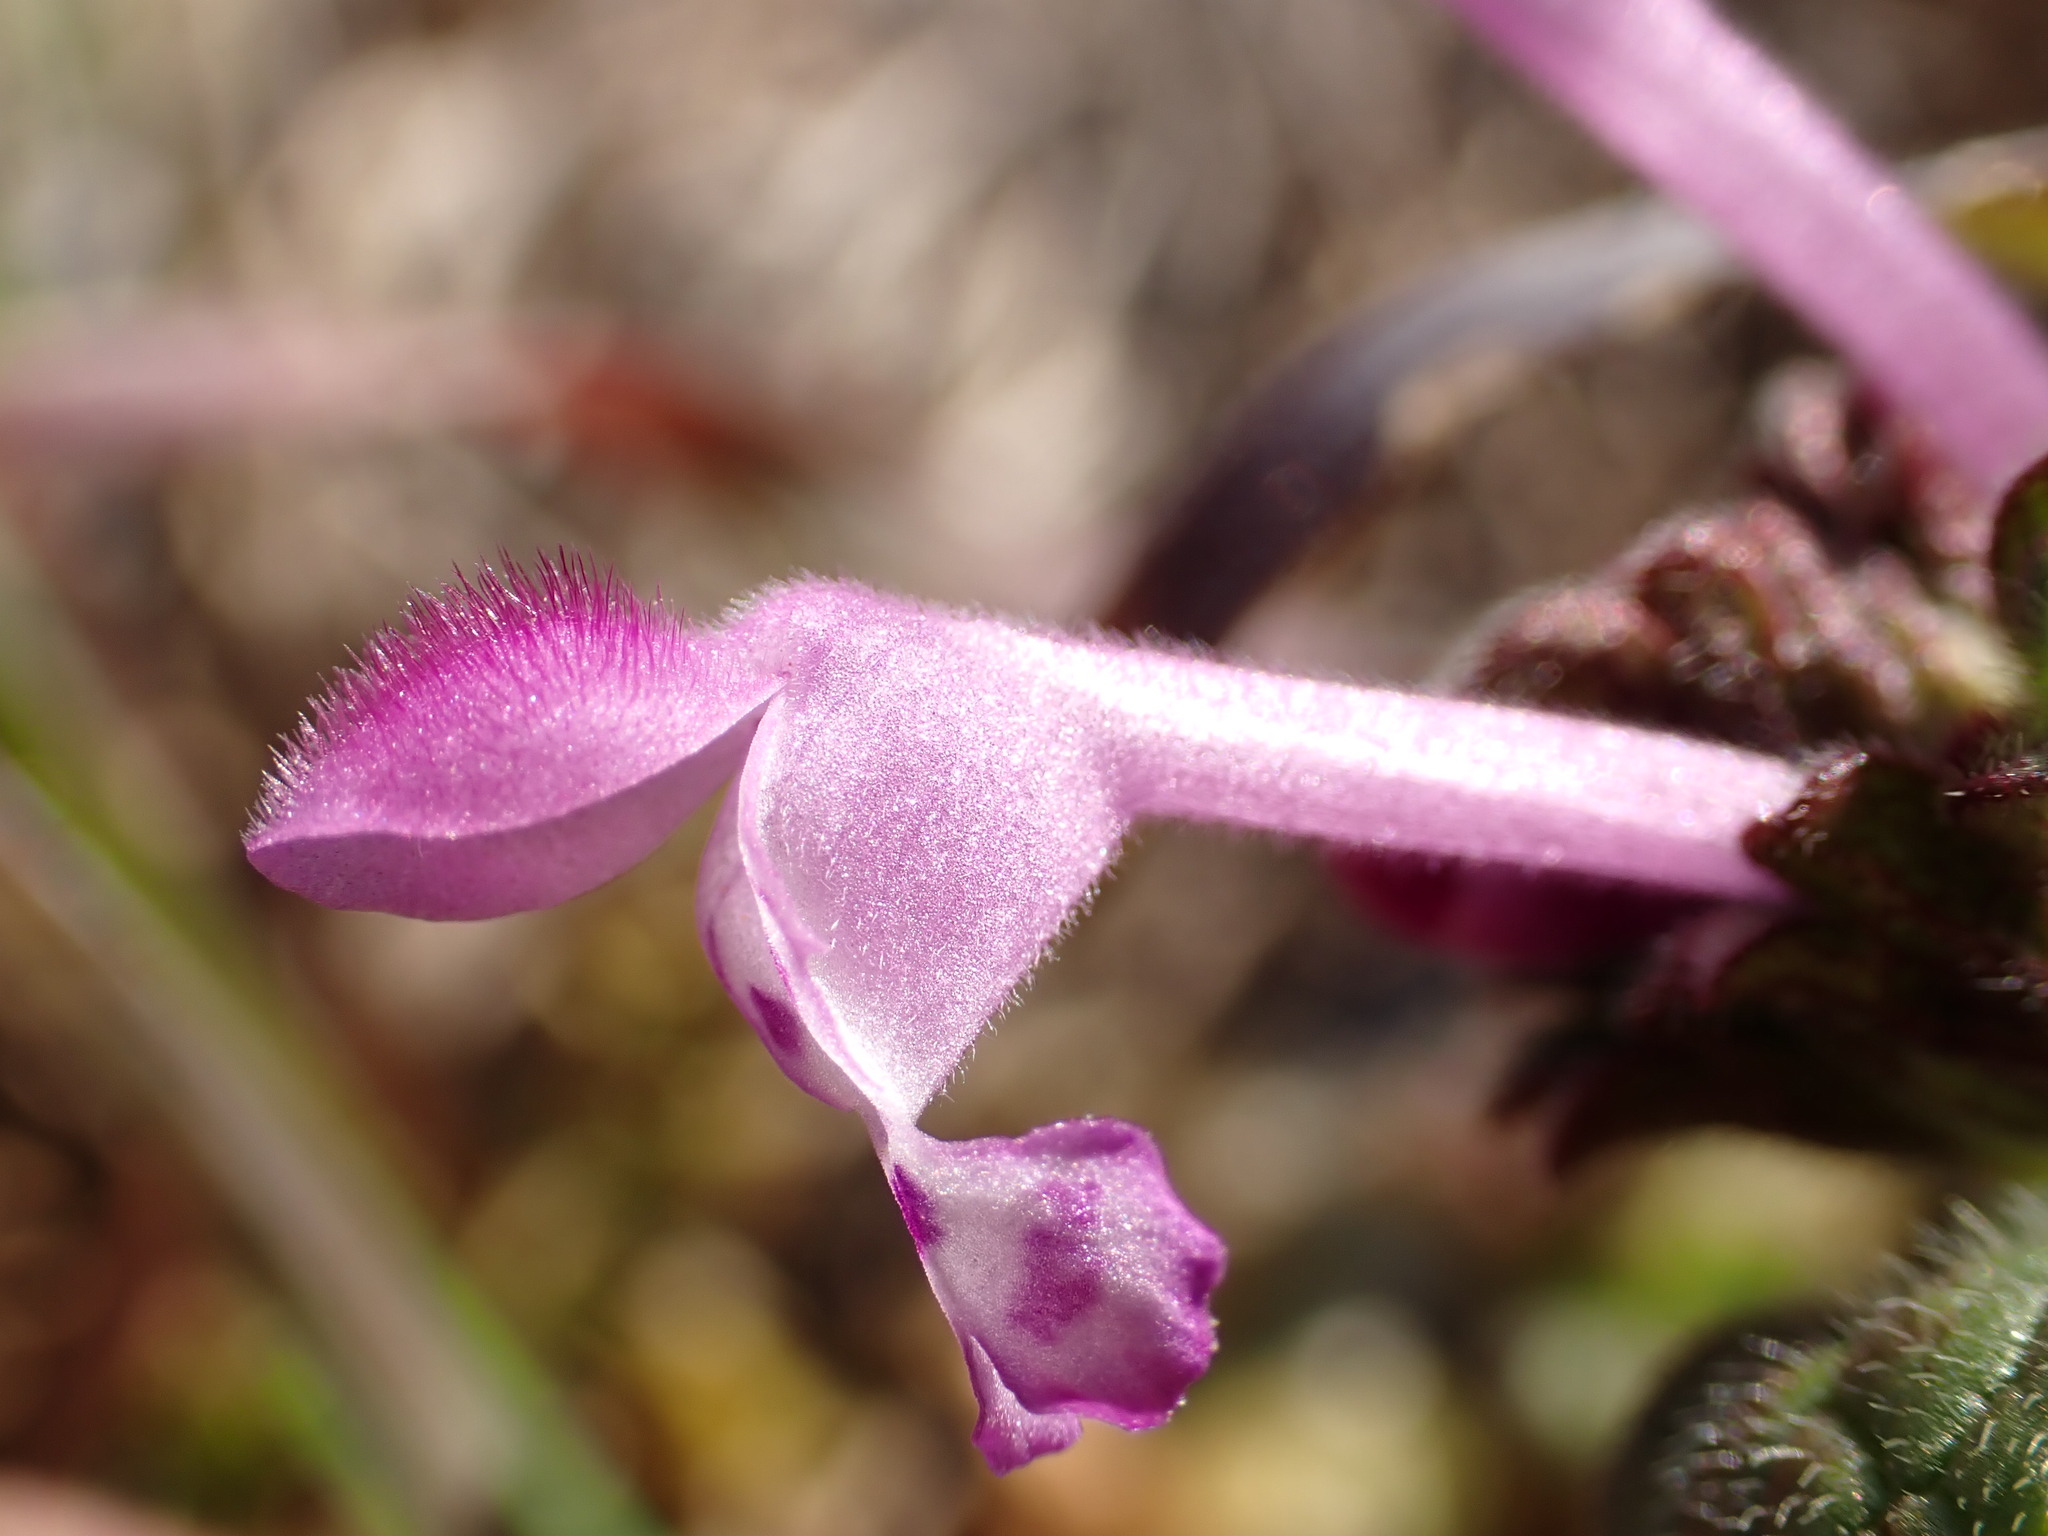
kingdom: Plantae
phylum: Tracheophyta
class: Magnoliopsida
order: Lamiales
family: Lamiaceae
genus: Lamium
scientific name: Lamium amplexicaule
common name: Henbit dead-nettle
